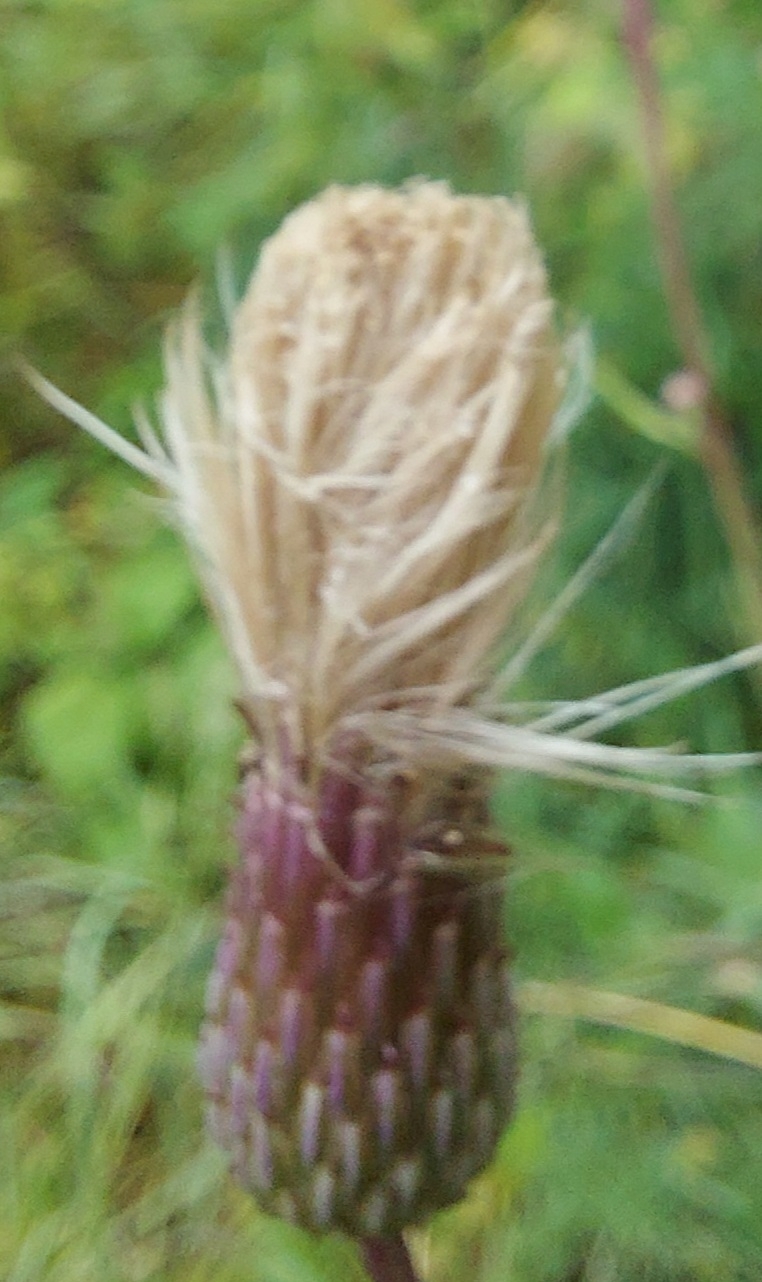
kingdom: Plantae
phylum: Tracheophyta
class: Magnoliopsida
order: Asterales
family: Asteraceae
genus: Cirsium
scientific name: Cirsium arvense
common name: Creeping thistle
